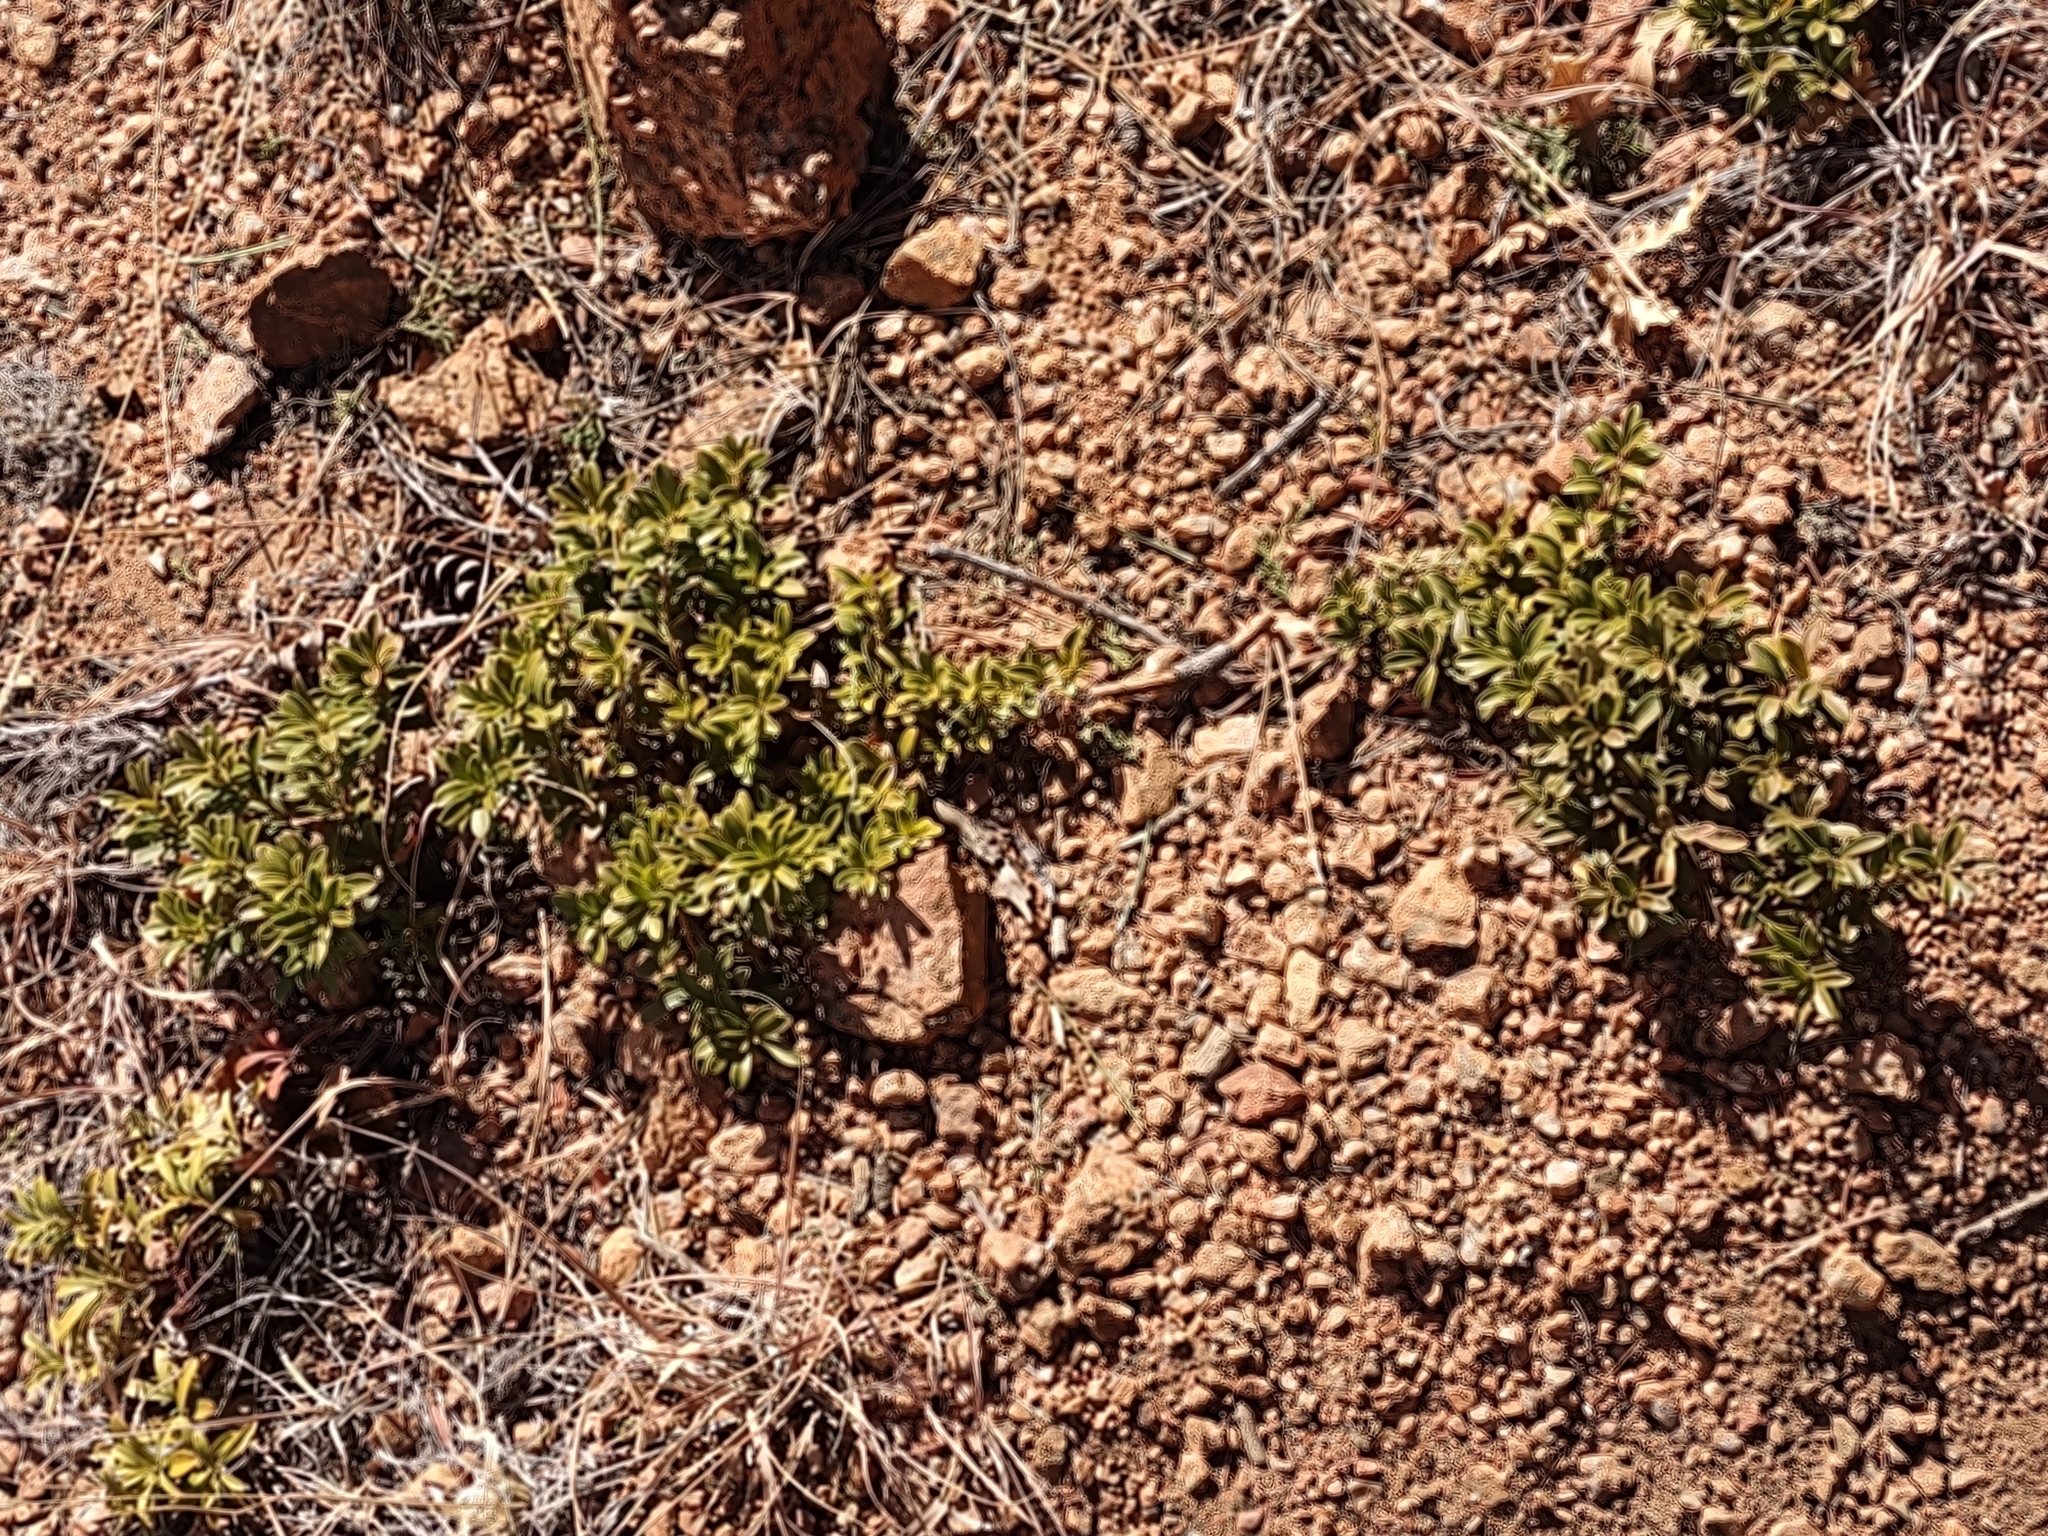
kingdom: Plantae
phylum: Tracheophyta
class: Magnoliopsida
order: Ericales
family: Ericaceae
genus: Arctostaphylos
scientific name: Arctostaphylos uva-ursi
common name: Bearberry
